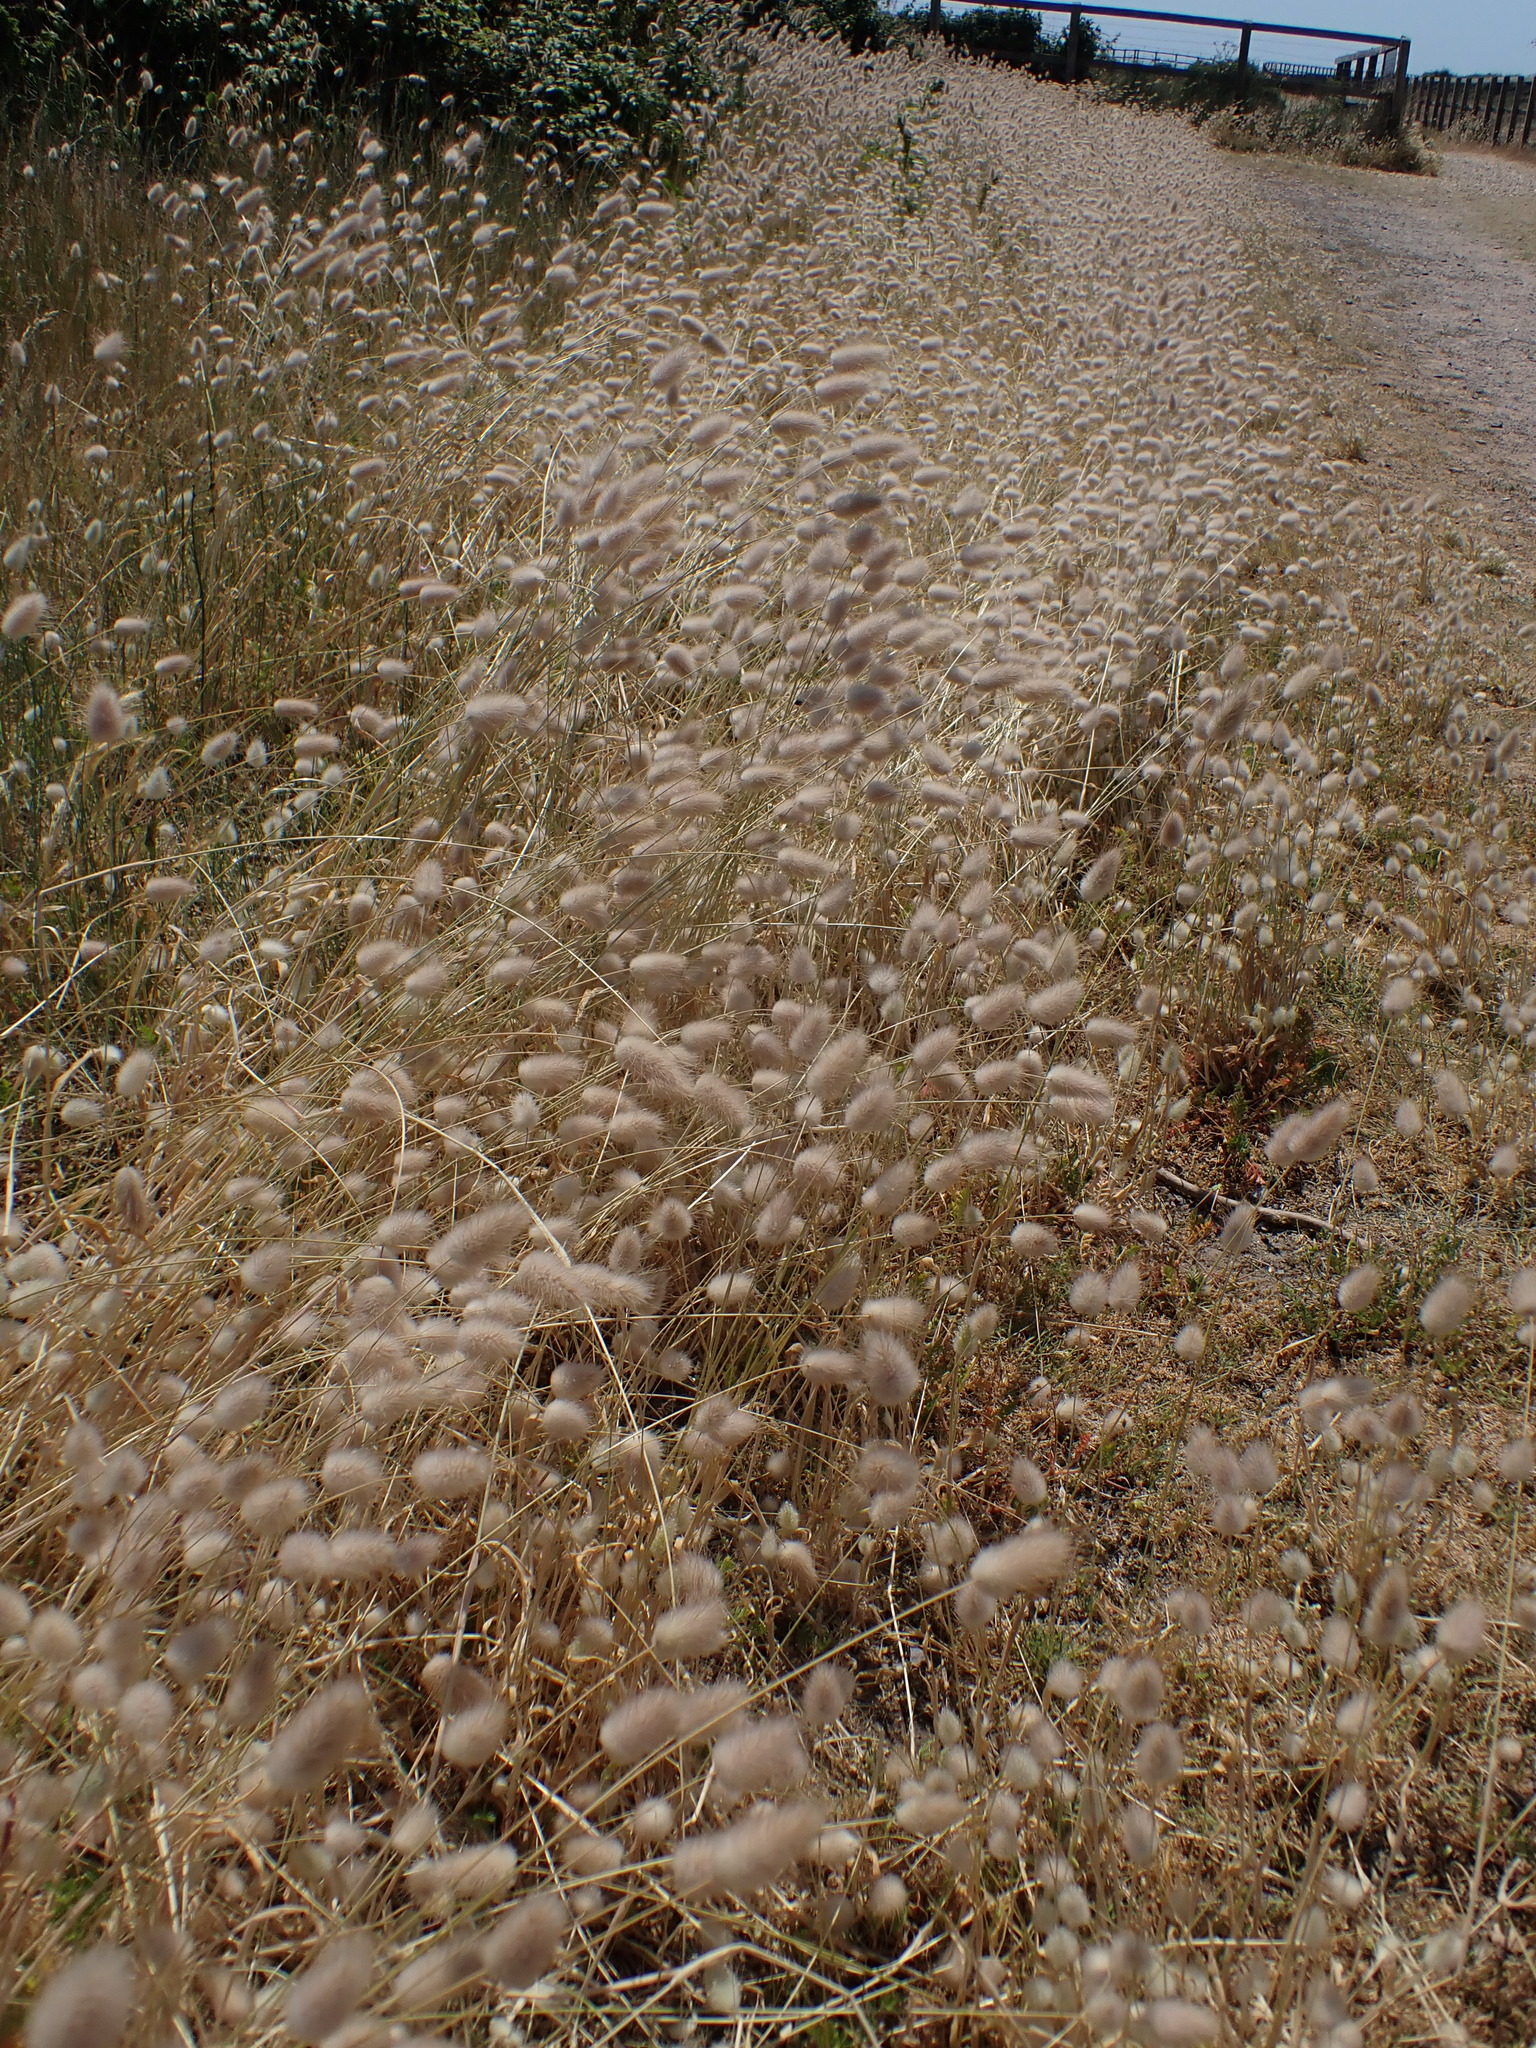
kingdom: Plantae
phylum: Tracheophyta
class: Liliopsida
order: Poales
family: Poaceae
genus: Lagurus
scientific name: Lagurus ovatus
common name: Hare's-tail
